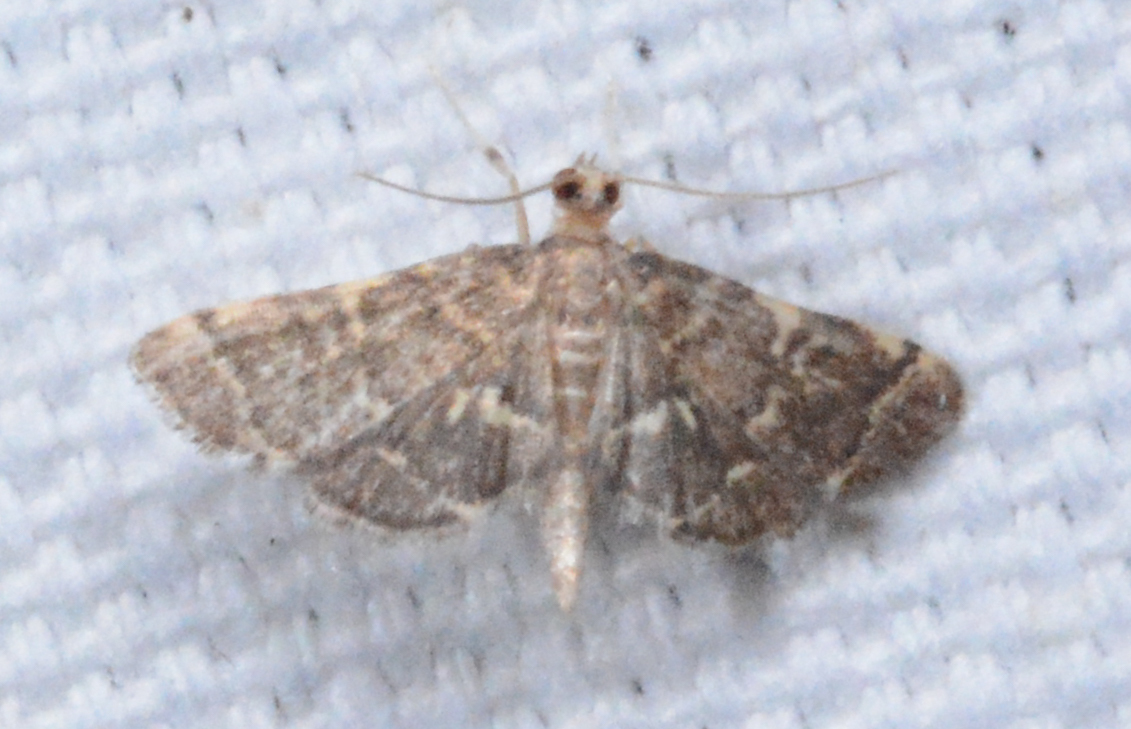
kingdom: Animalia
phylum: Arthropoda
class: Insecta
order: Lepidoptera
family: Crambidae
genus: Anageshna
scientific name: Anageshna primordialis
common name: Yellow-spotted webworm moth
